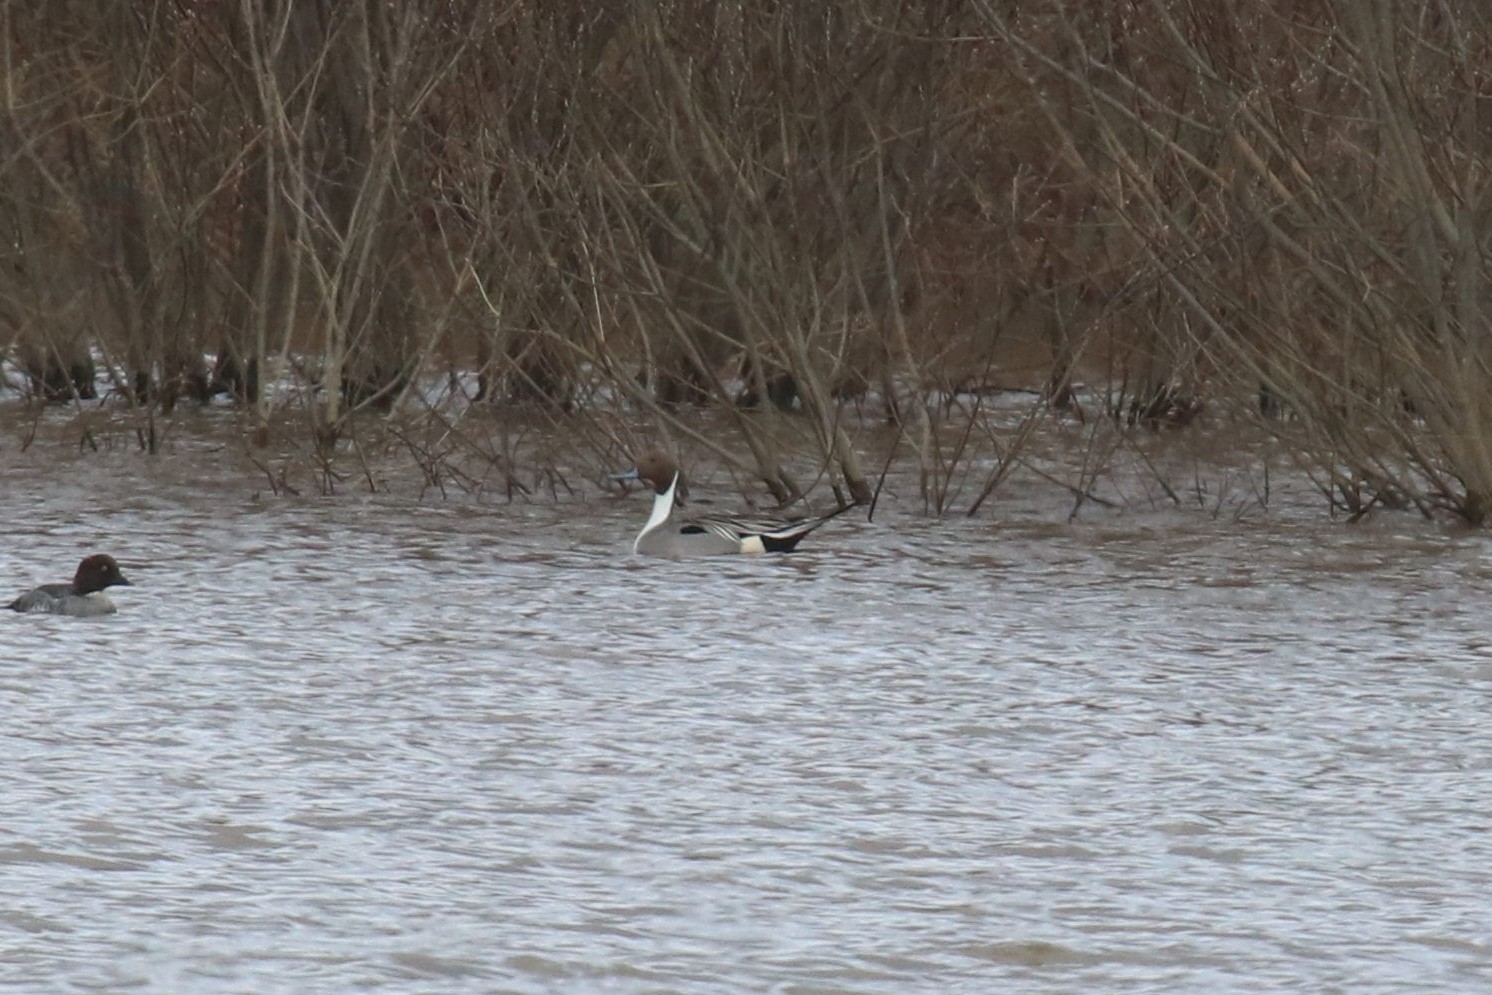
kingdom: Animalia
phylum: Chordata
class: Aves
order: Anseriformes
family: Anatidae
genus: Anas
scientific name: Anas acuta
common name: Northern pintail
